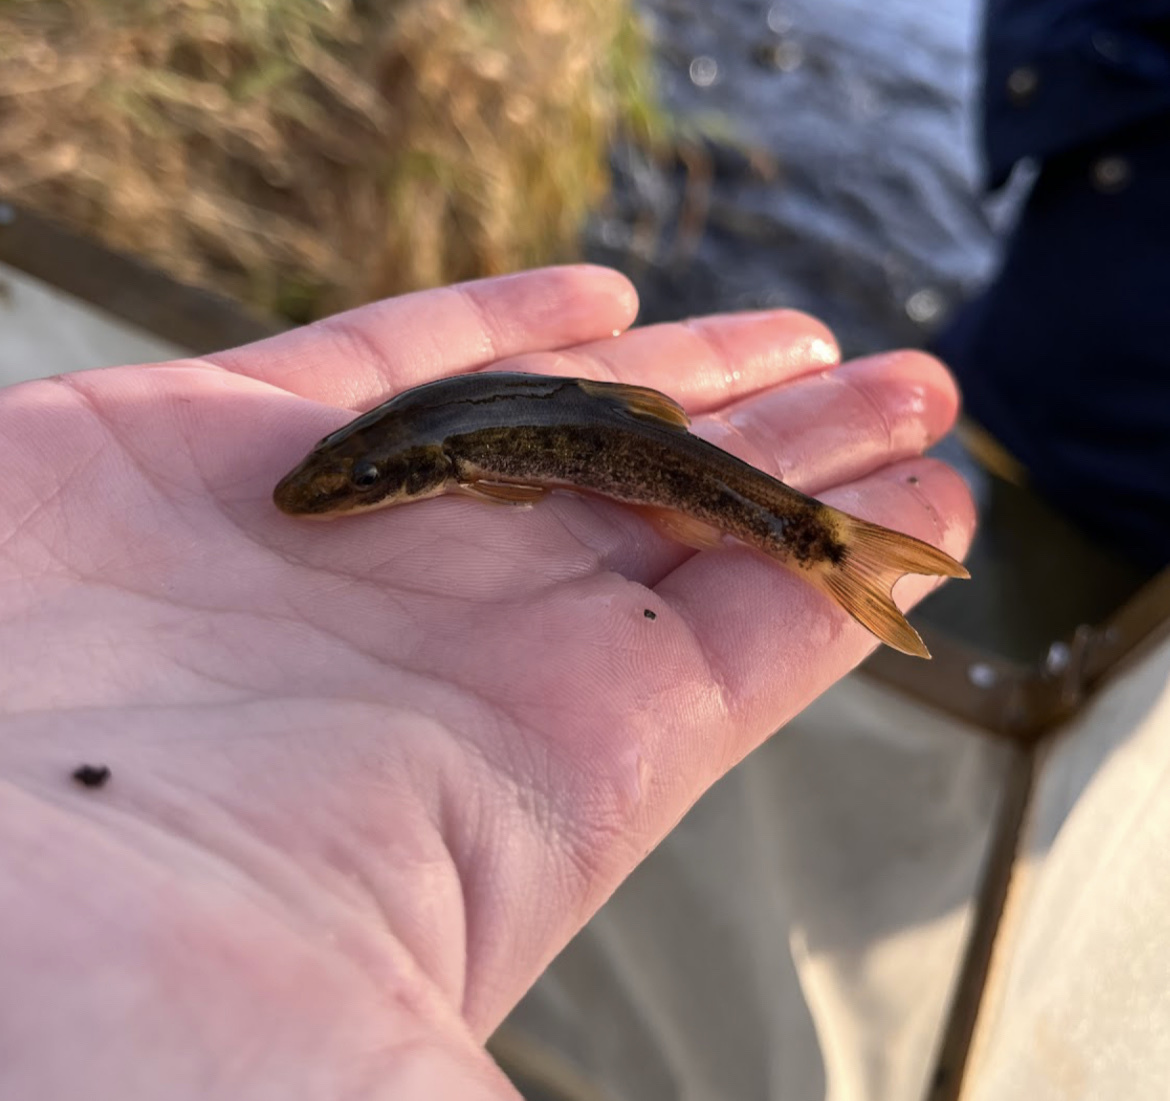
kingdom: Animalia
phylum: Chordata
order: Cypriniformes
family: Cyprinidae
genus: Rhinichthys
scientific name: Rhinichthys cataractae
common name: Longnose dace
